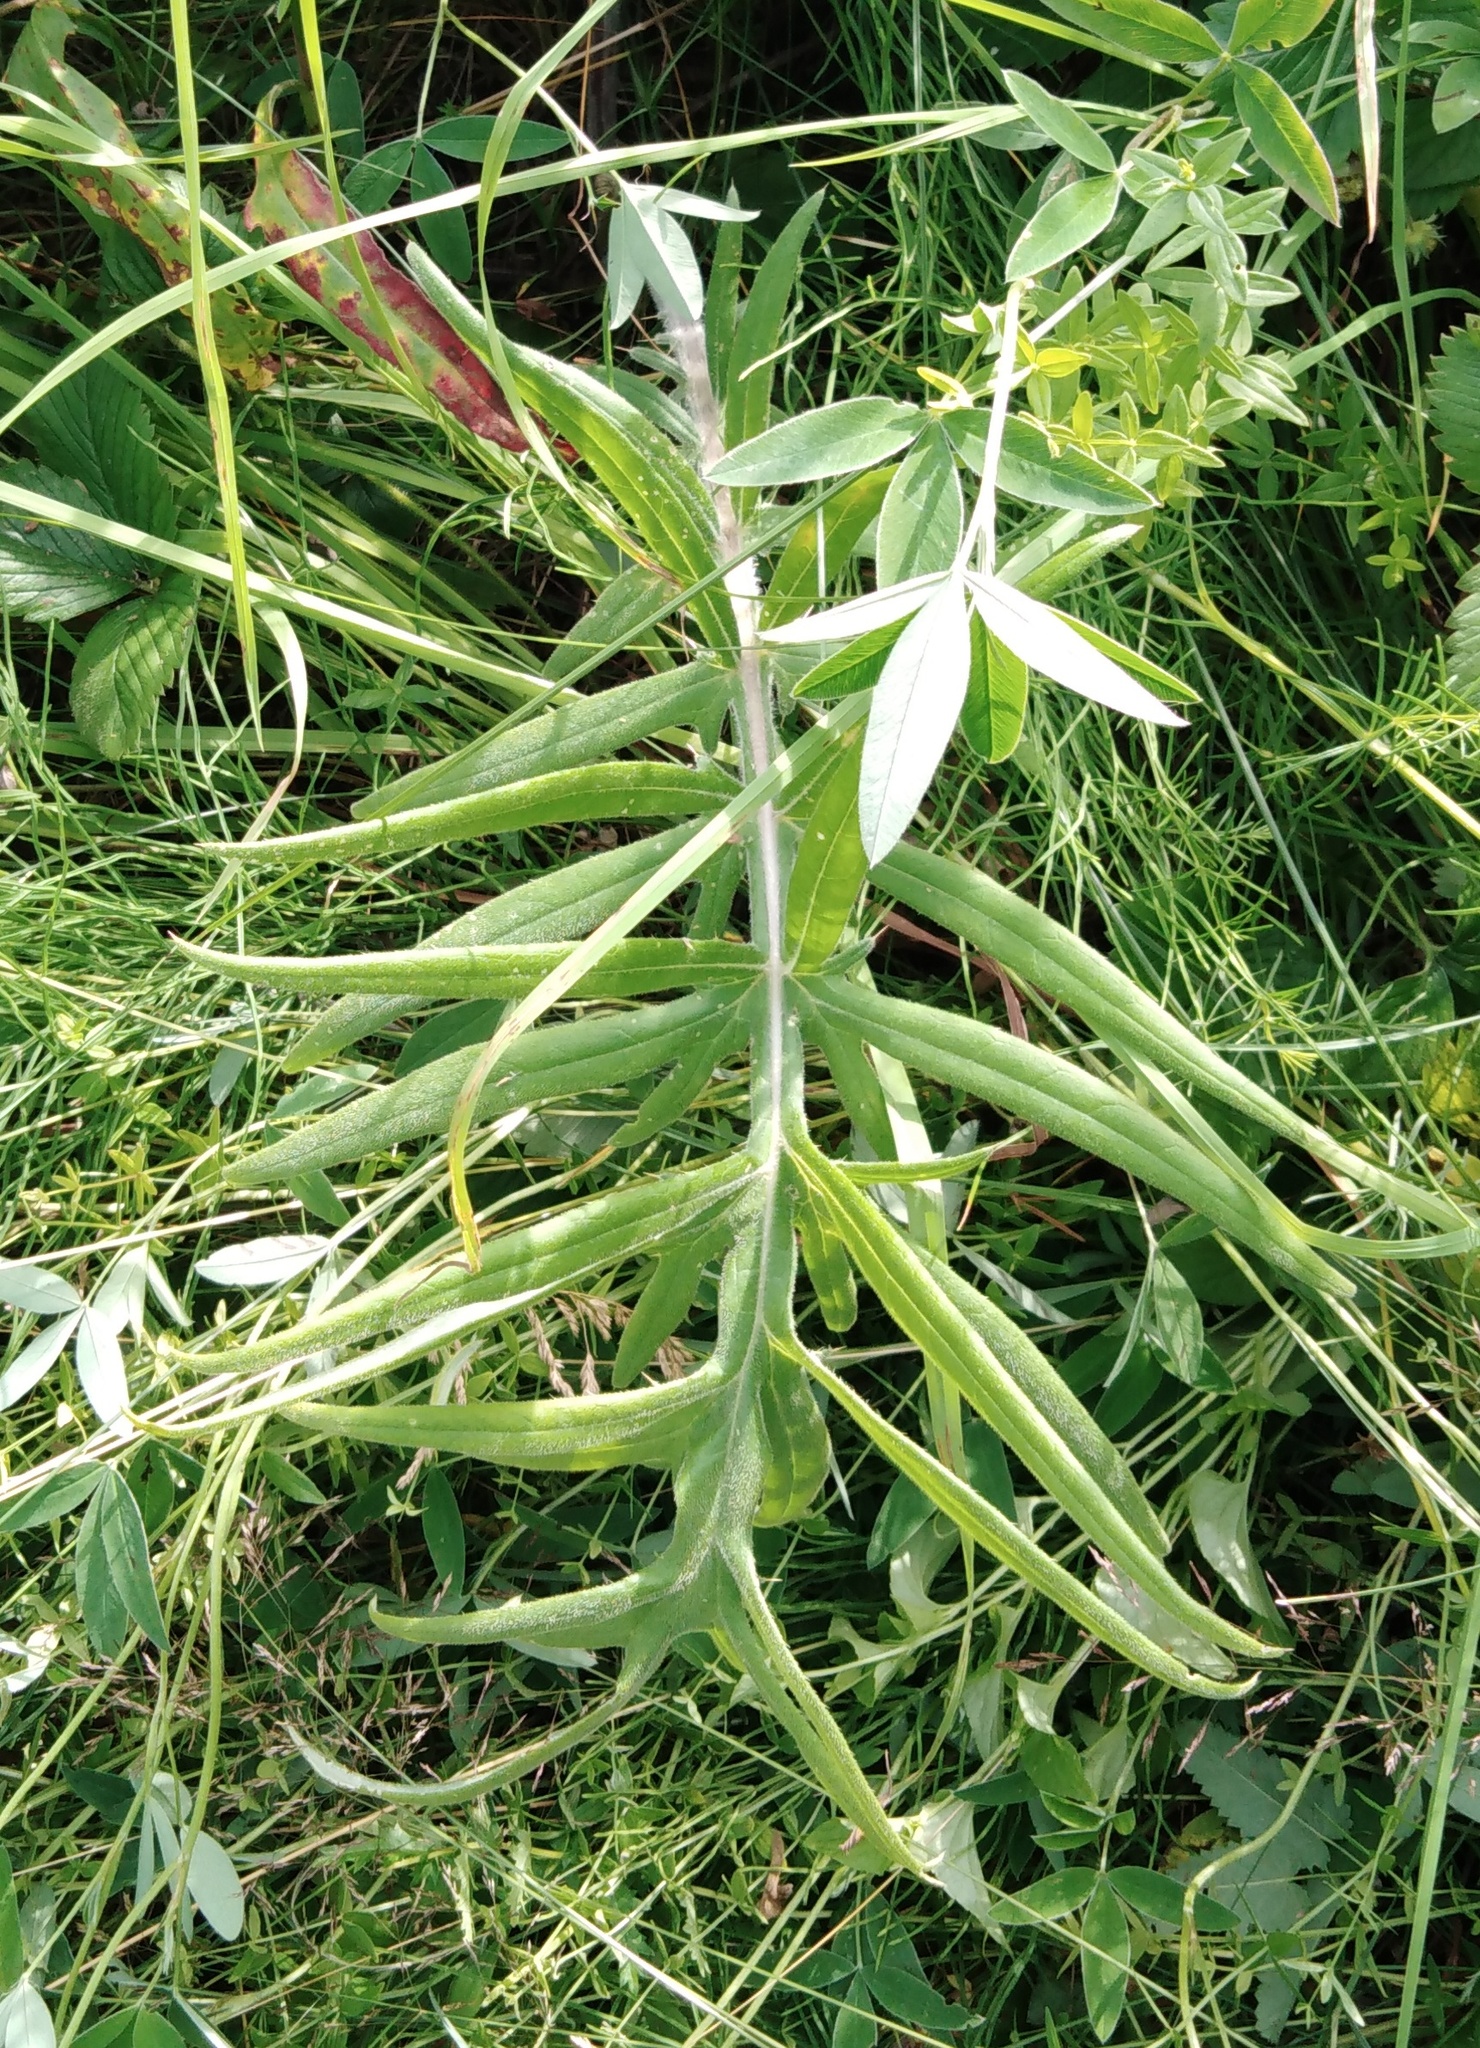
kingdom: Plantae
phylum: Tracheophyta
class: Magnoliopsida
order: Asterales
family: Asteraceae
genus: Lophiolepis
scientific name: Lophiolepis decussata
